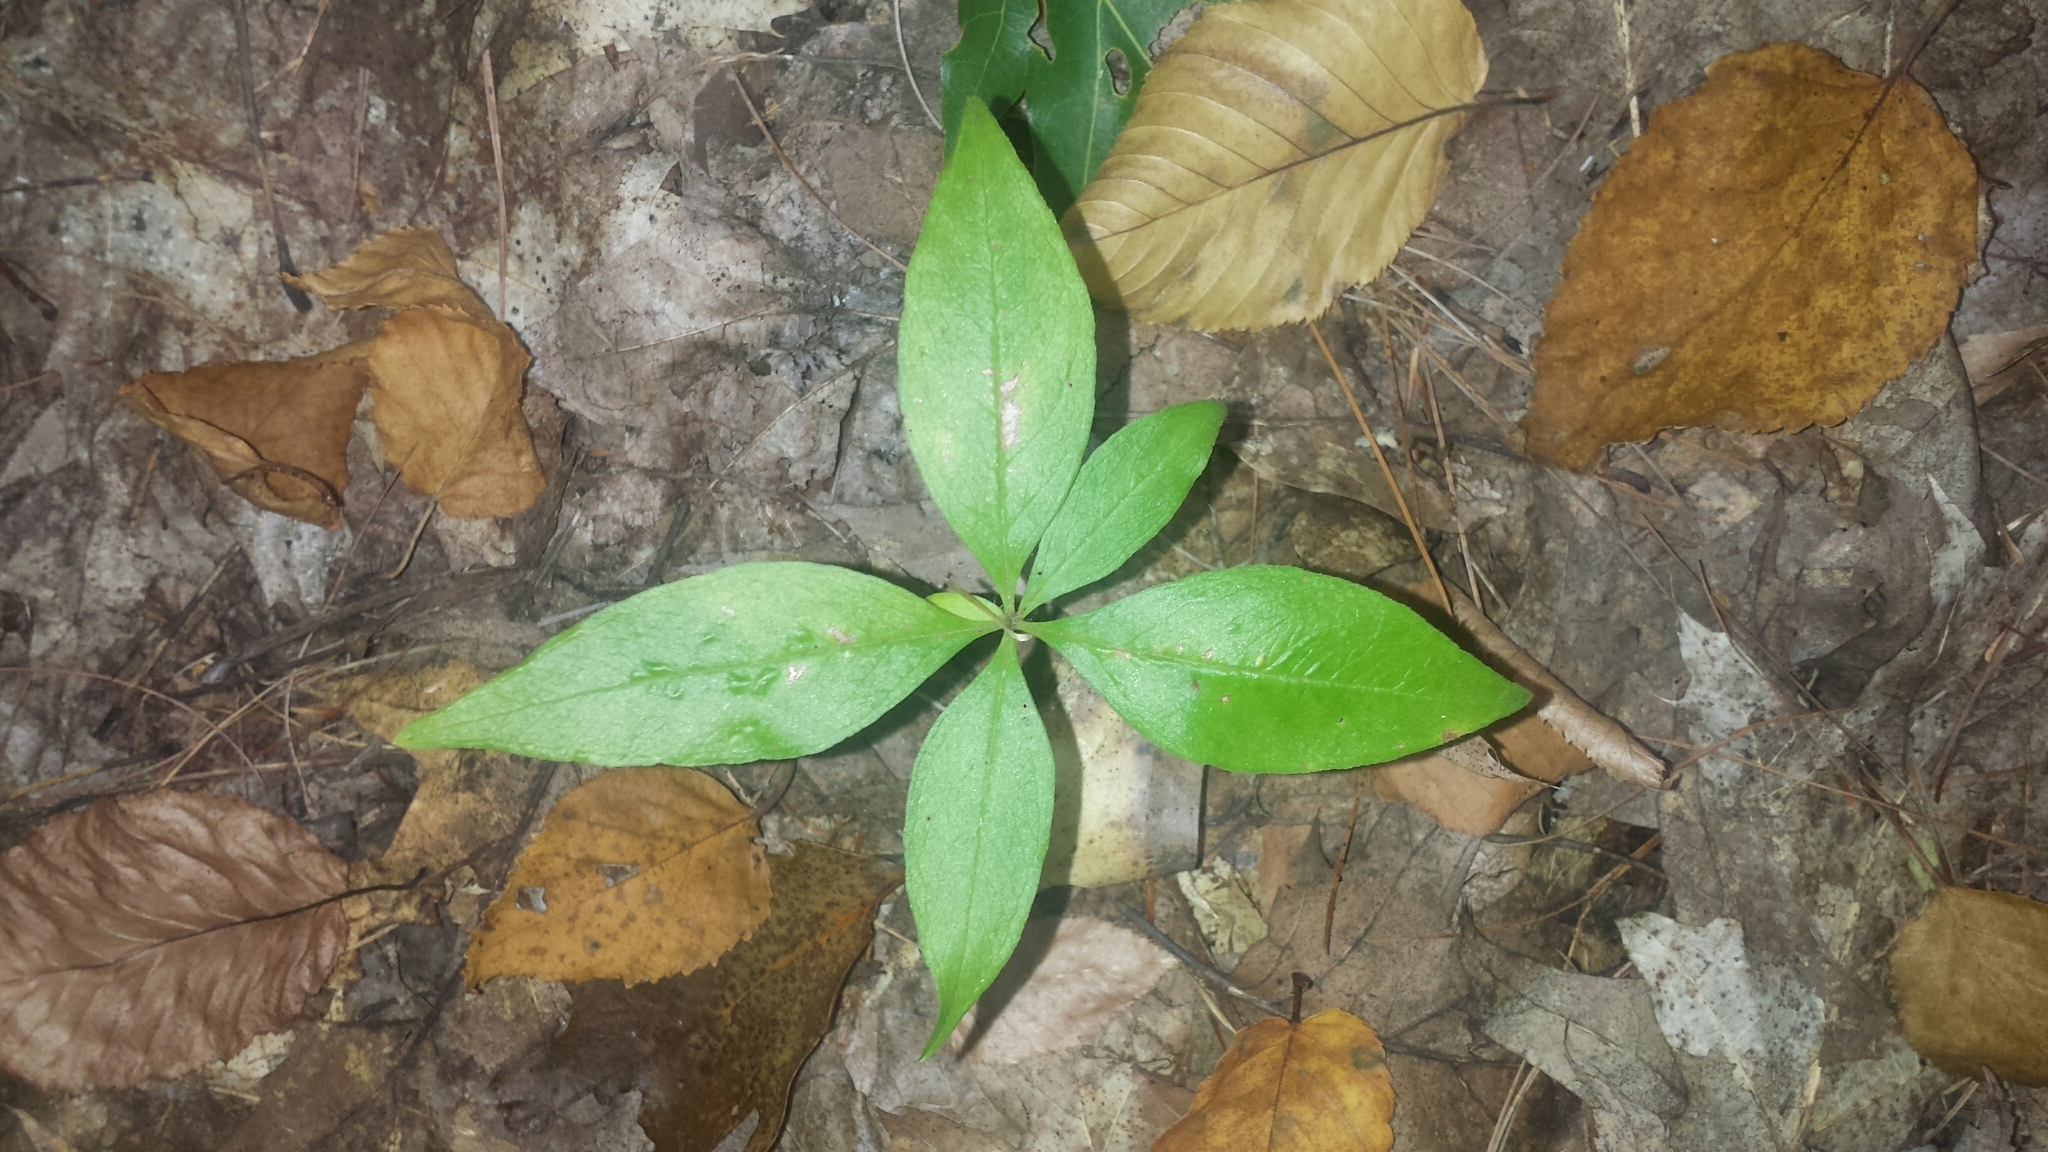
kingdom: Plantae
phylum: Tracheophyta
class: Magnoliopsida
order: Ericales
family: Primulaceae
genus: Lysimachia
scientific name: Lysimachia borealis
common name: American starflower
